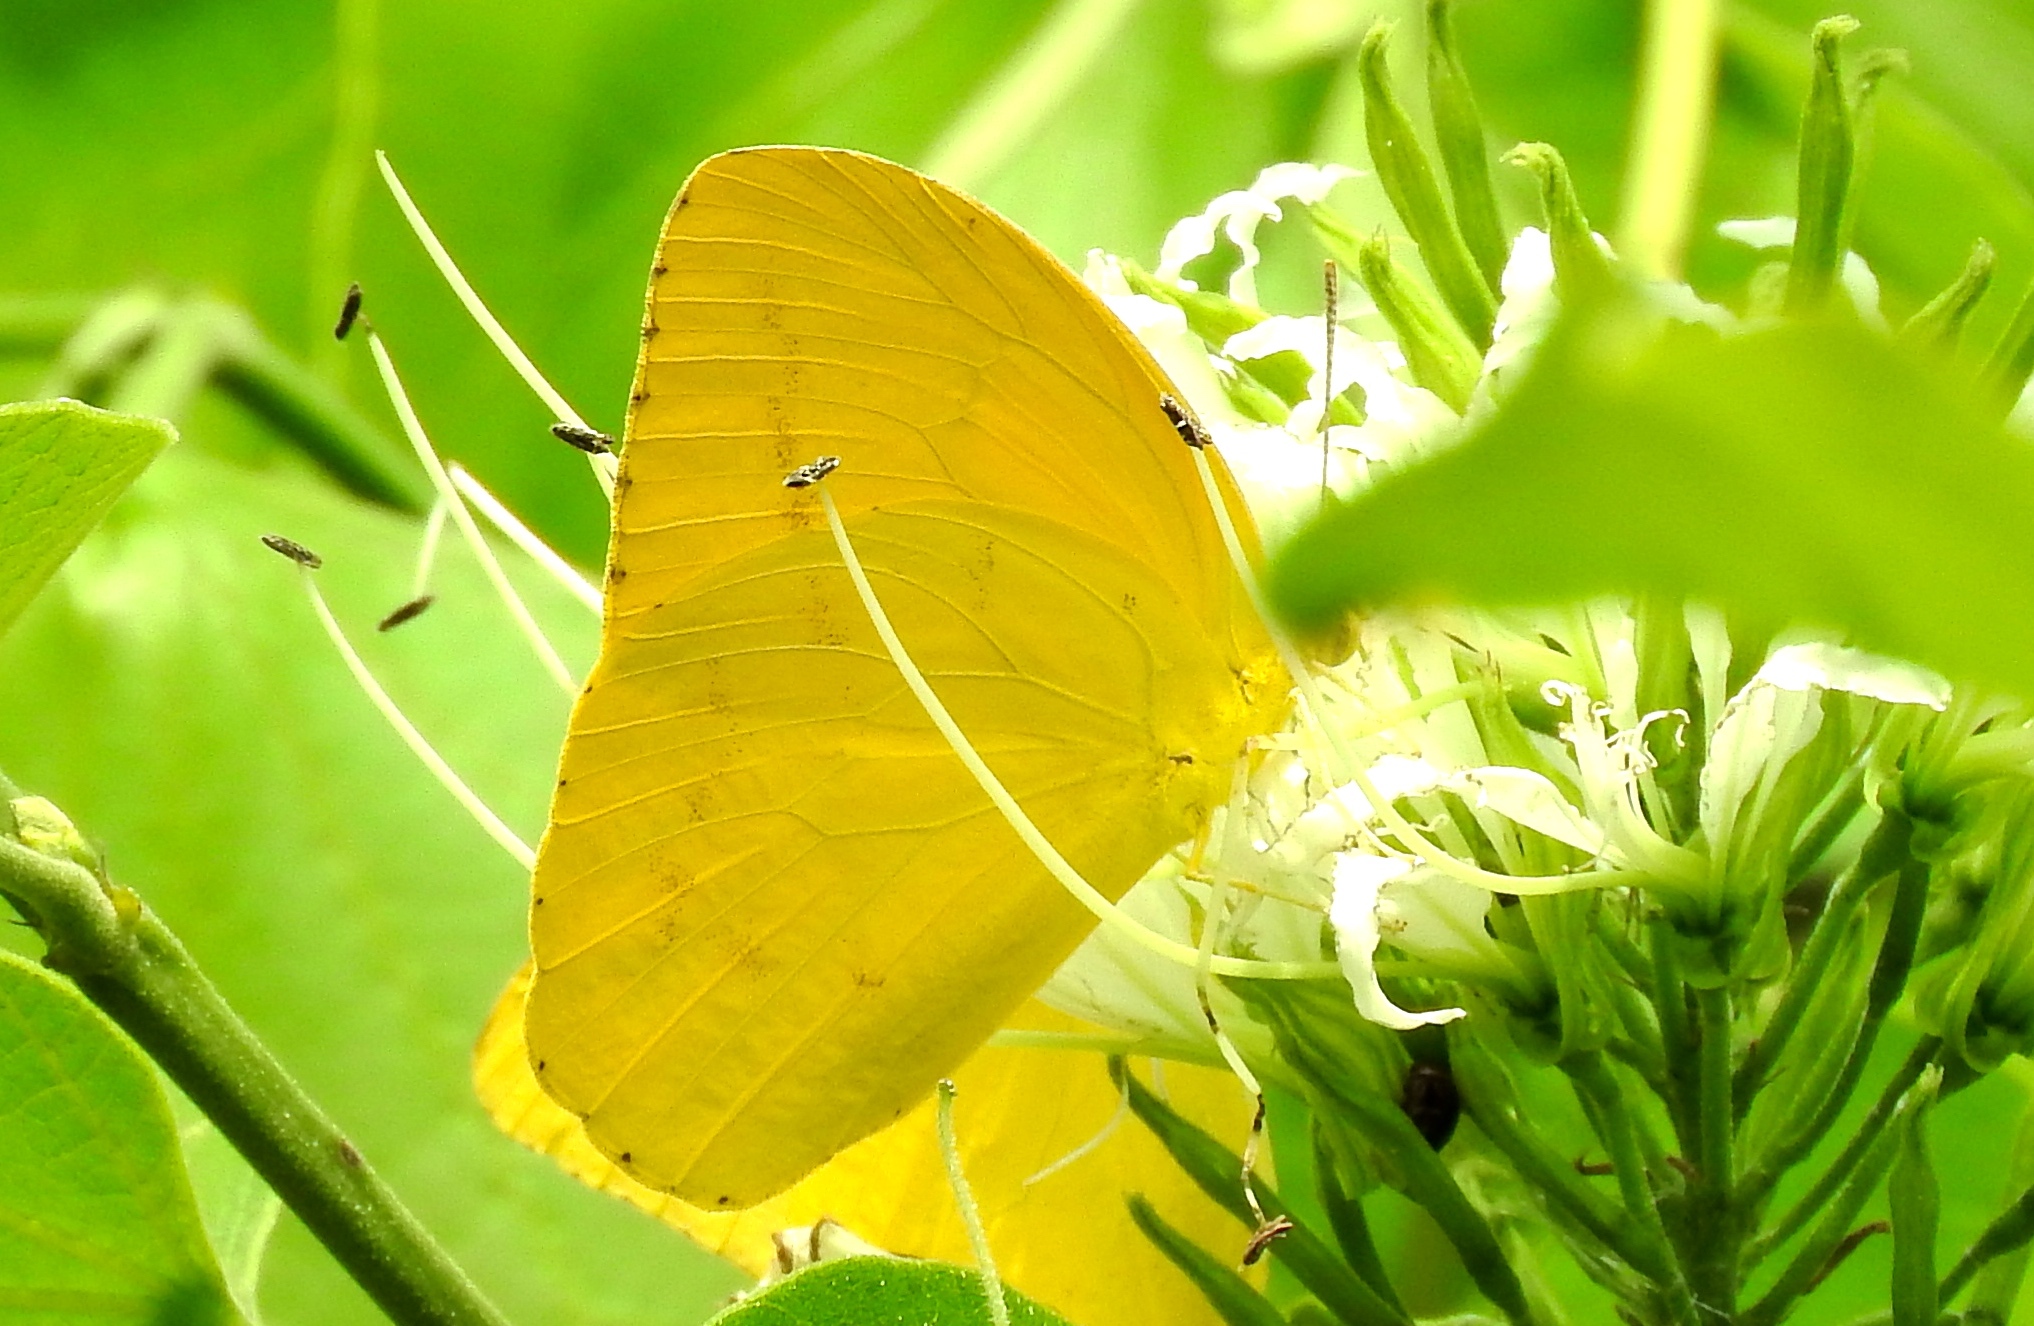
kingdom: Animalia
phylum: Arthropoda
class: Insecta
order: Lepidoptera
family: Pieridae
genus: Phoebis
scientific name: Phoebis agarithe
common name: Large orange sulphur
